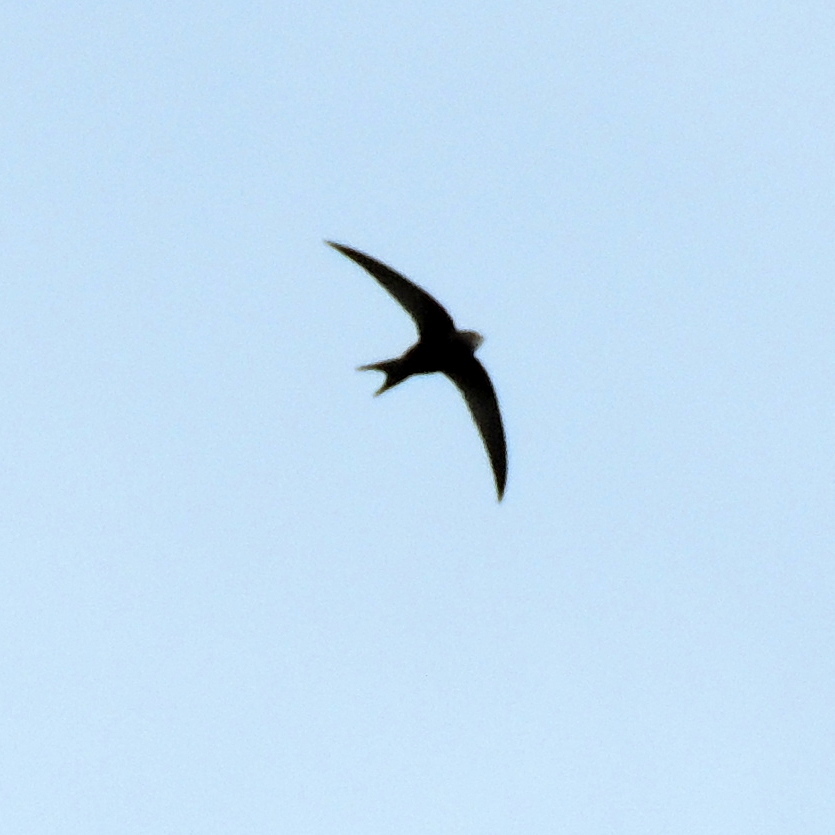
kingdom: Animalia
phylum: Chordata
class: Aves
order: Apodiformes
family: Apodidae
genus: Apus
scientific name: Apus apus
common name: Common swift
